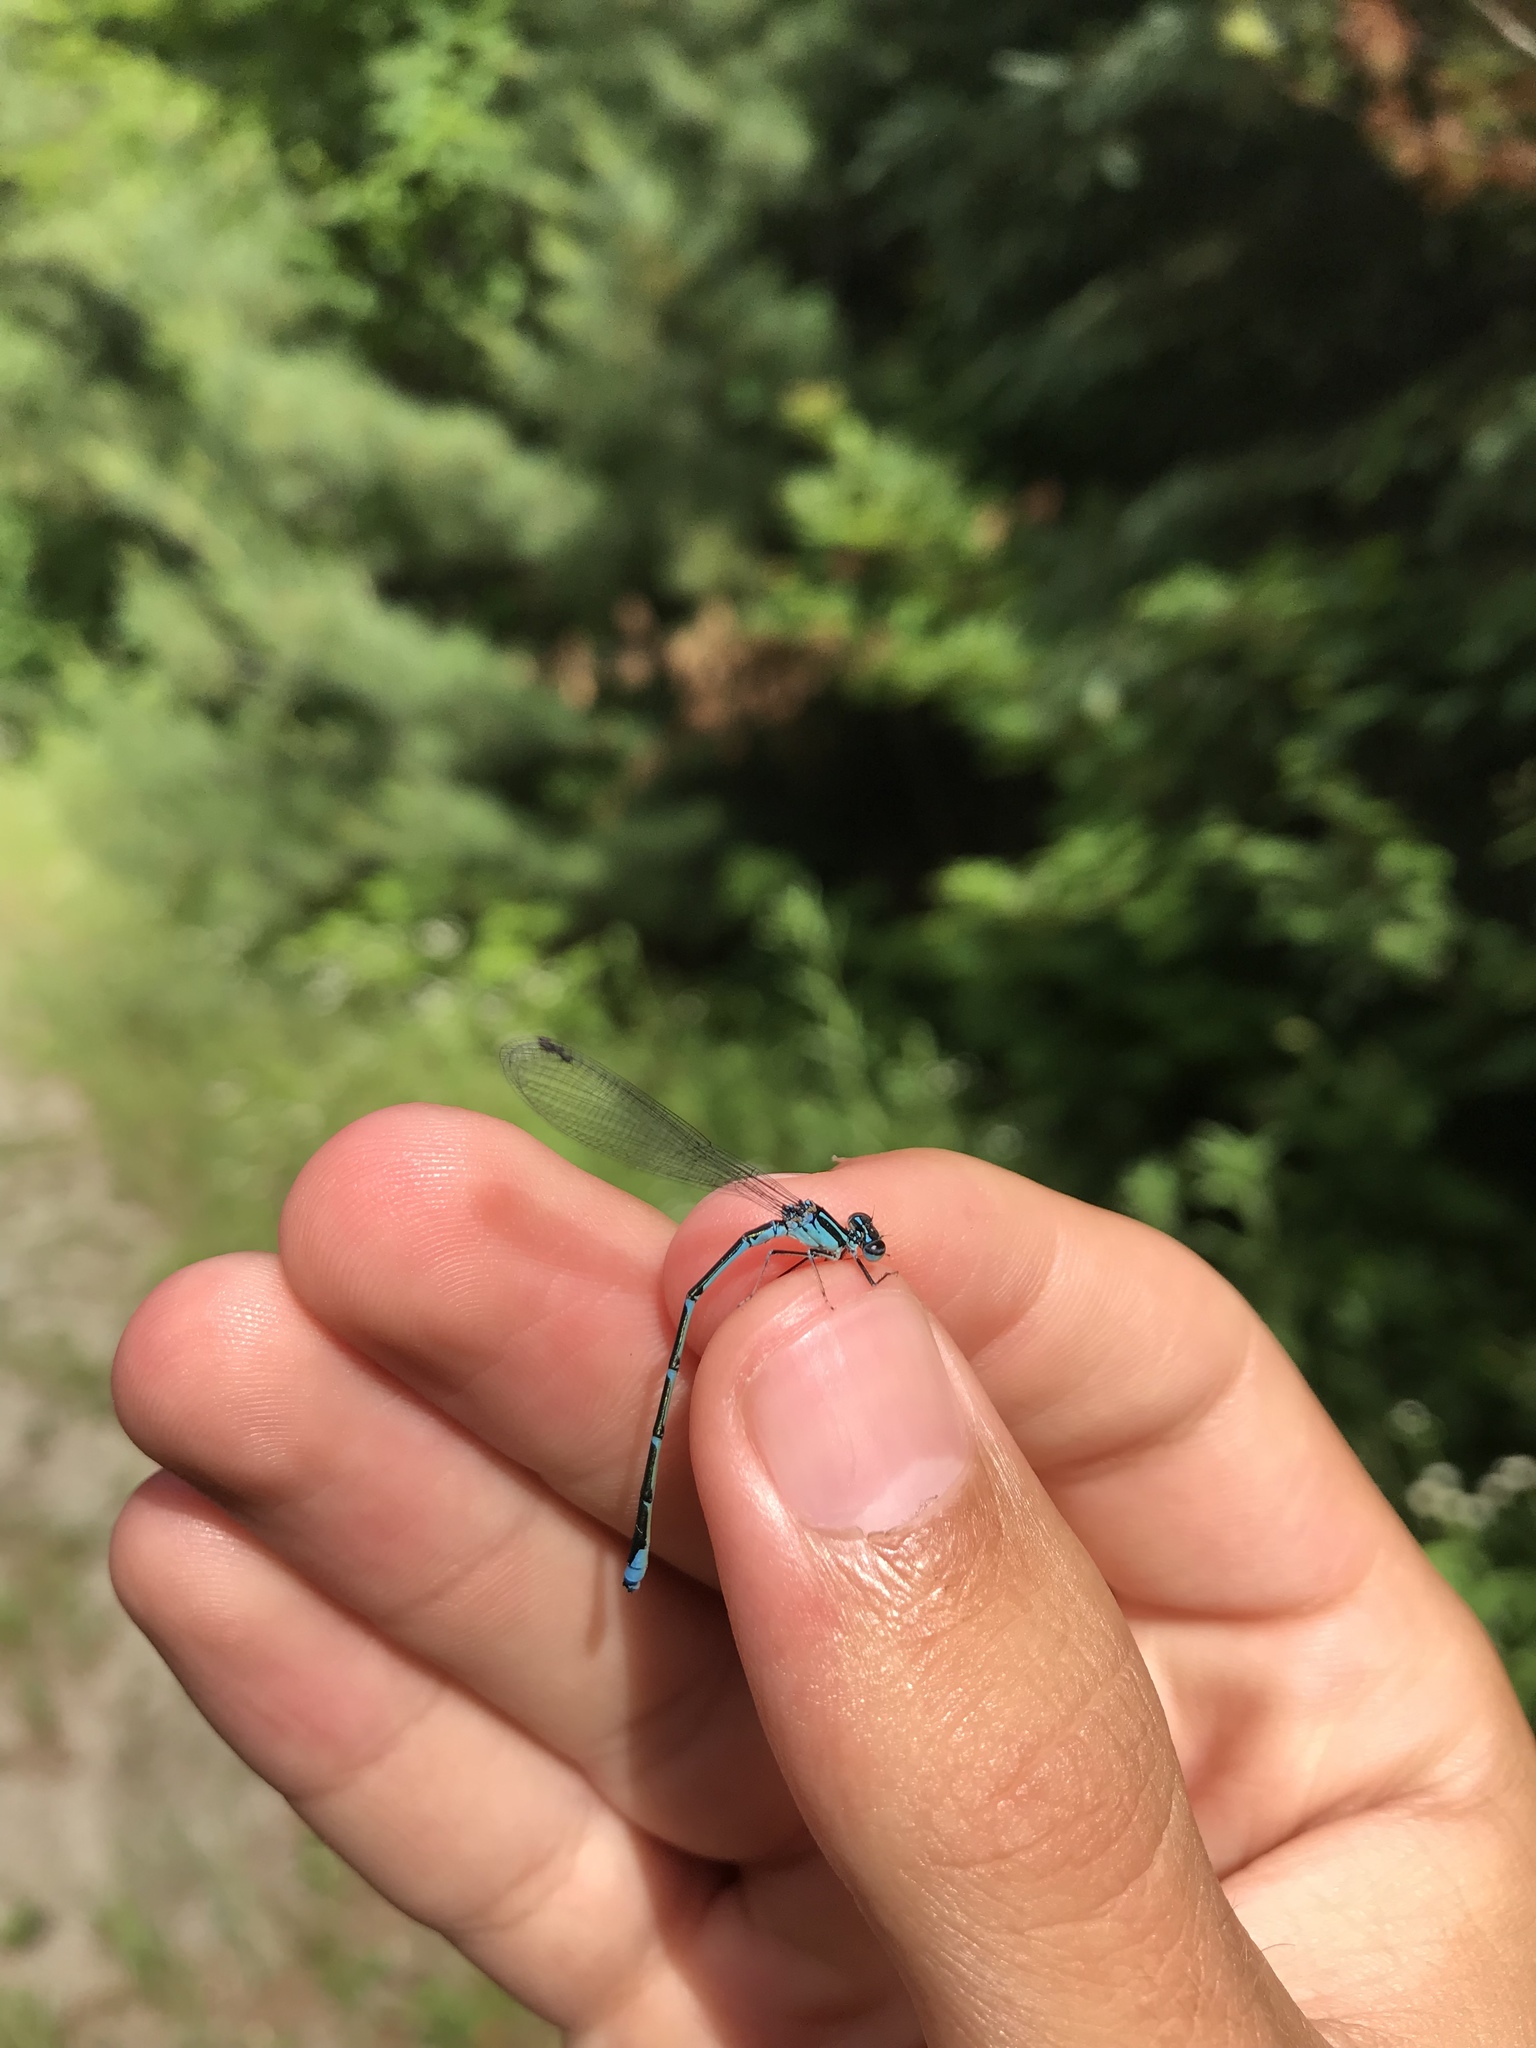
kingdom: Animalia
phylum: Arthropoda
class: Insecta
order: Odonata
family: Coenagrionidae
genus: Enallagma
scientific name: Enallagma exsulans
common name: Stream bluet
